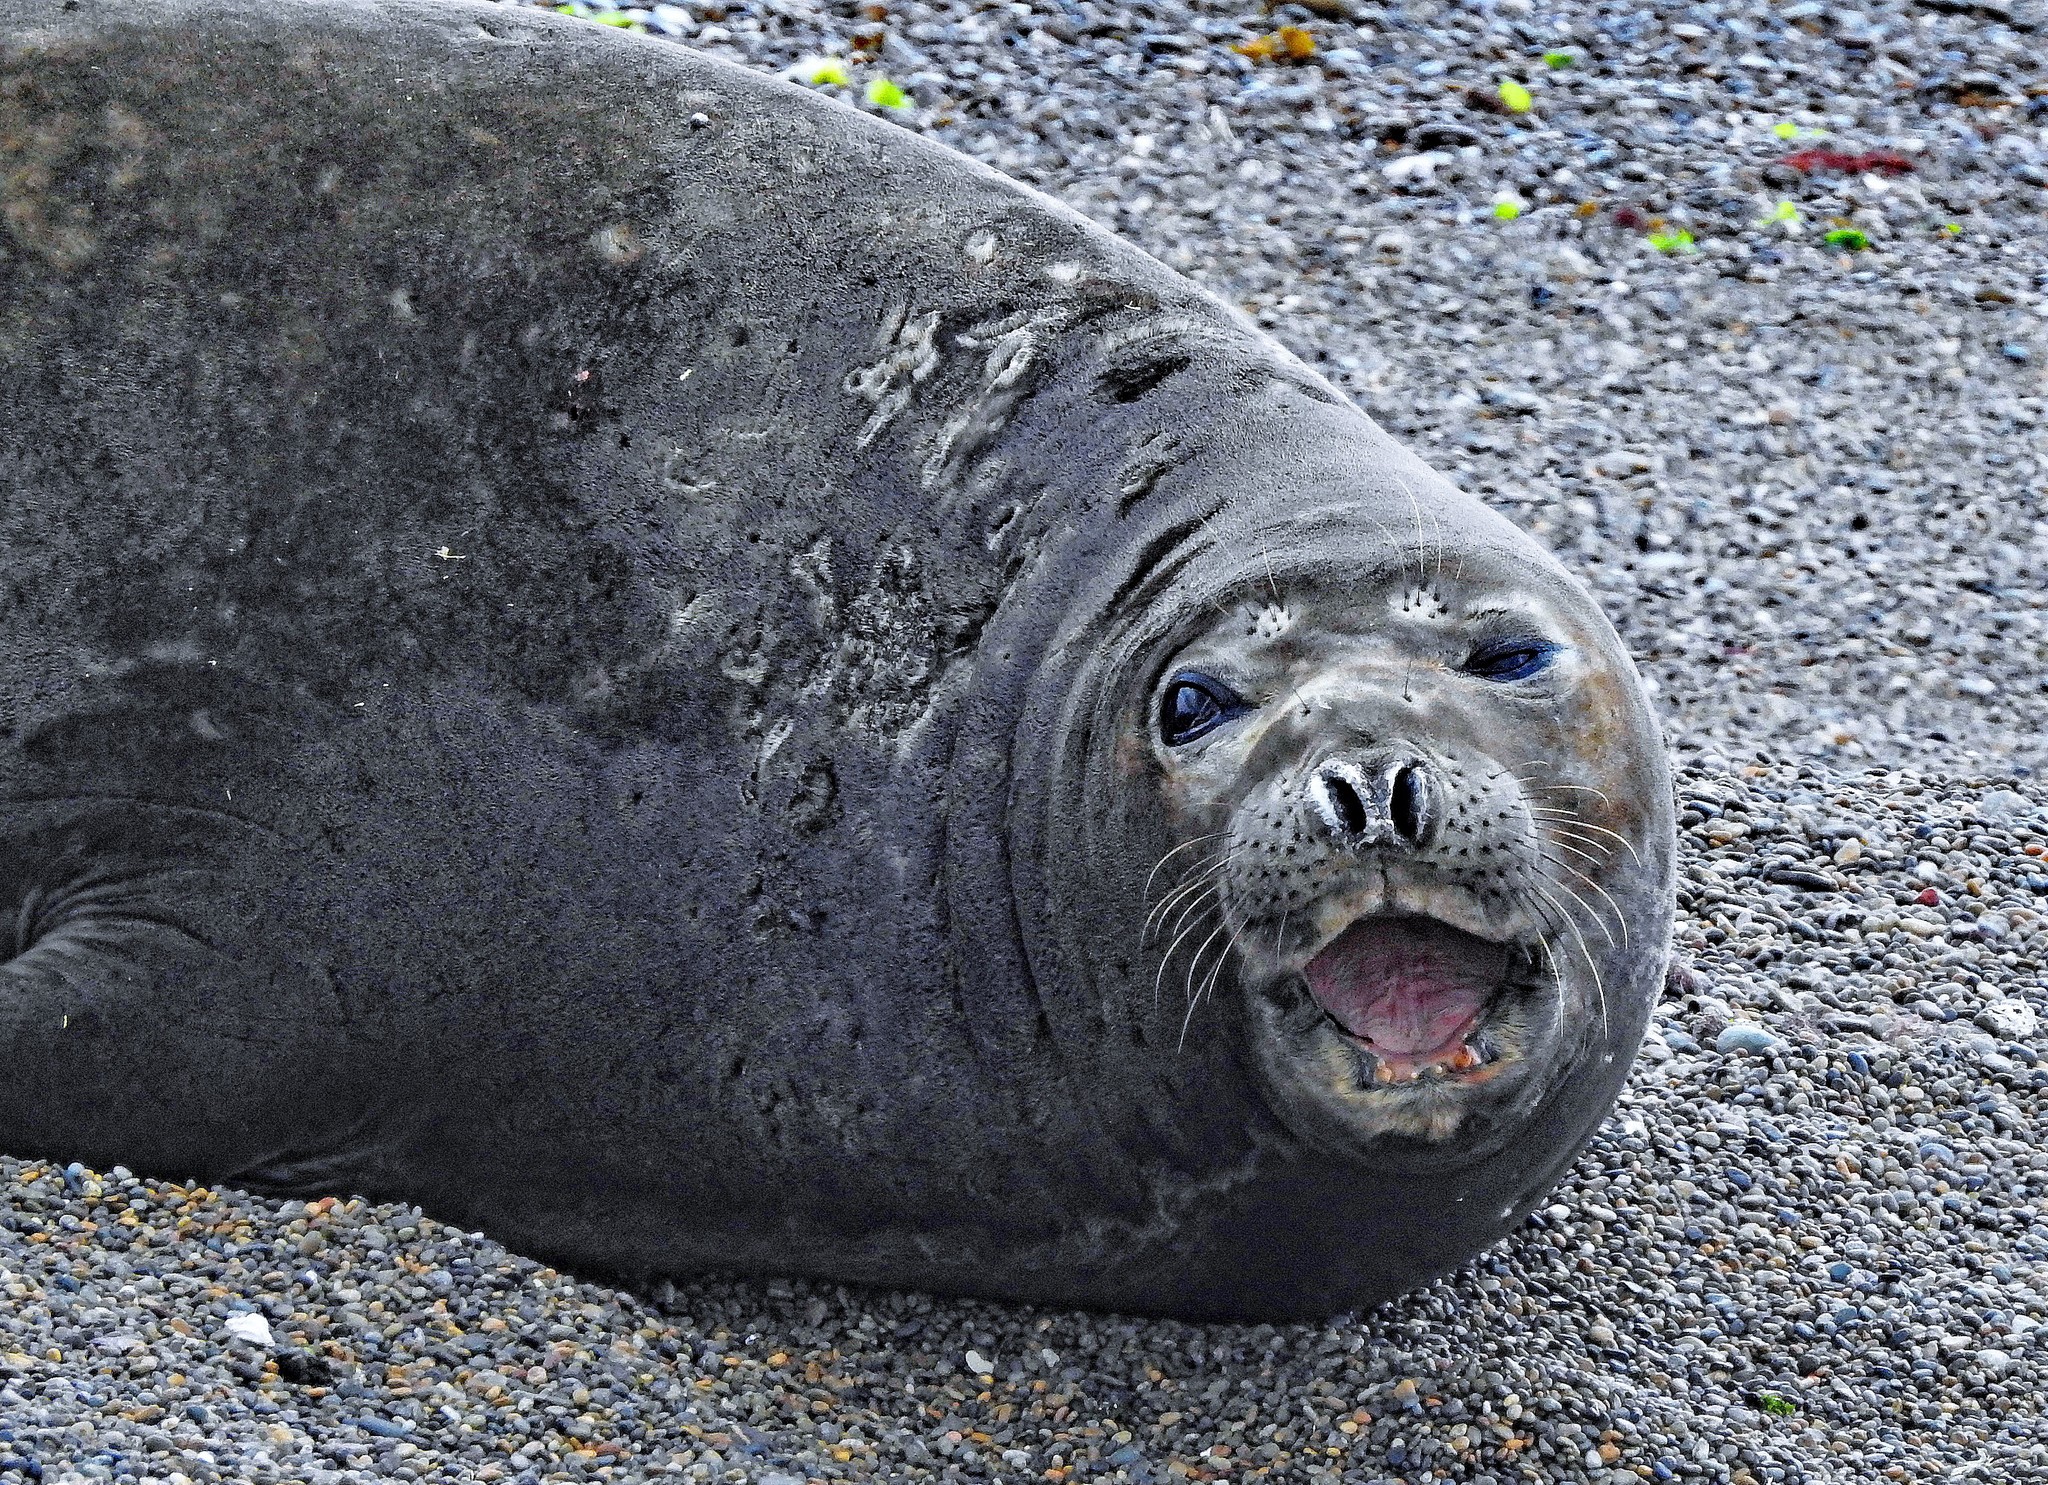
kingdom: Animalia
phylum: Chordata
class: Mammalia
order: Carnivora
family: Phocidae
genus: Mirounga
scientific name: Mirounga leonina
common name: Southern elephant seal
